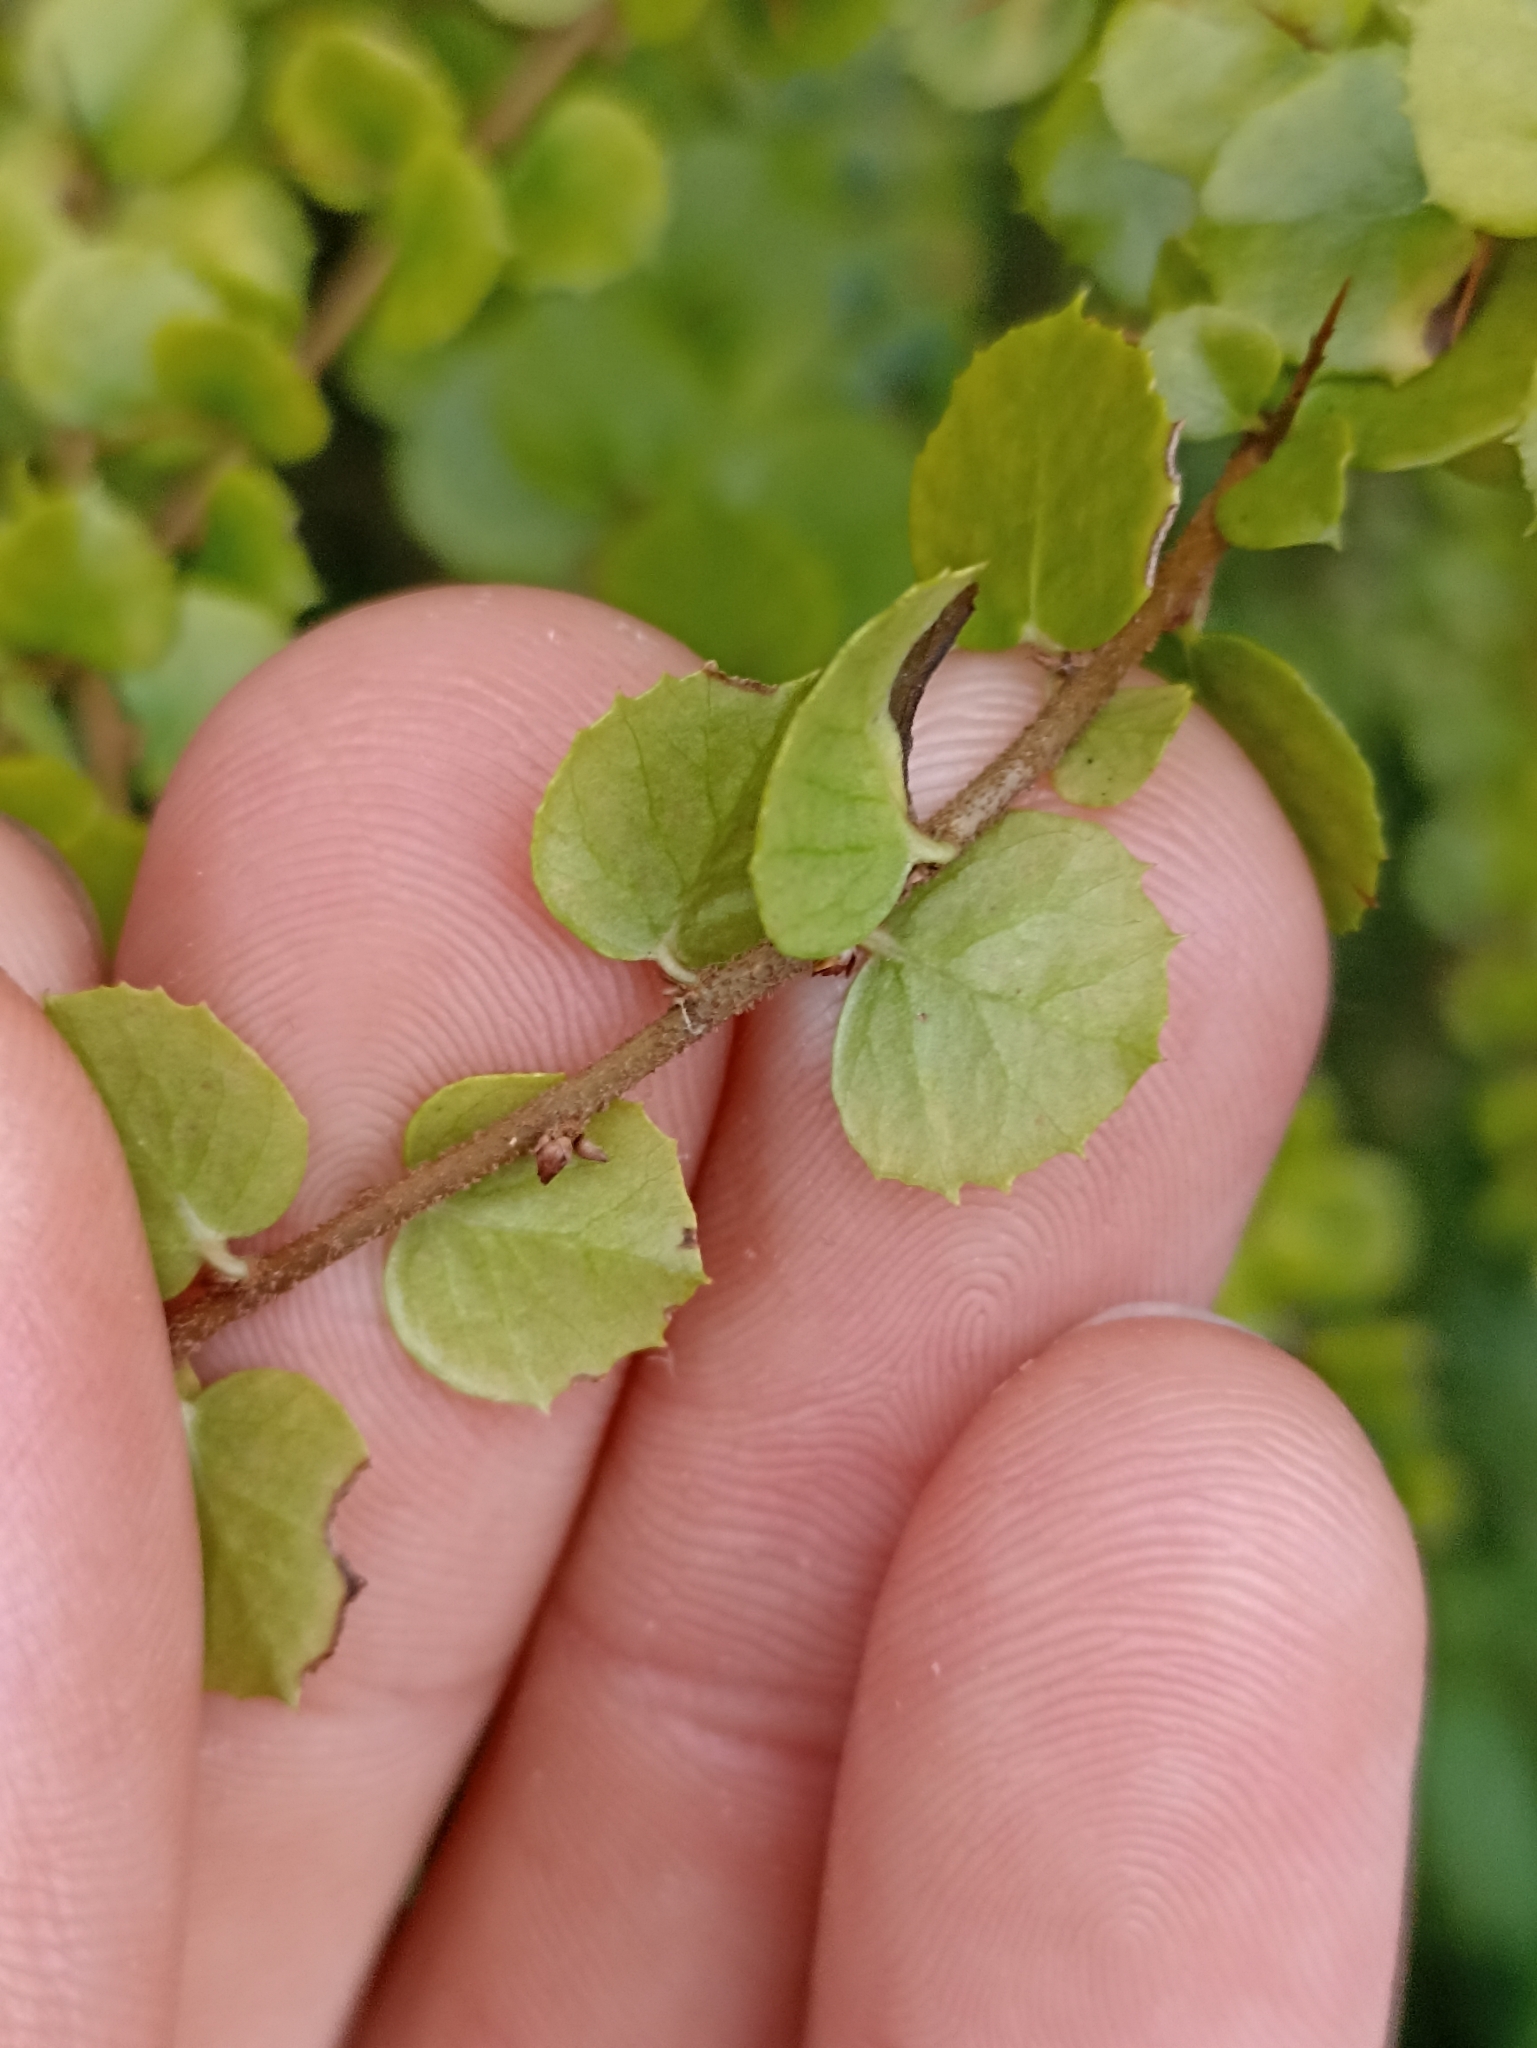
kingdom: Plantae
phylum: Tracheophyta
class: Magnoliopsida
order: Apiales
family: Pittosporaceae
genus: Pittosporum
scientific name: Pittosporum multiflorum
